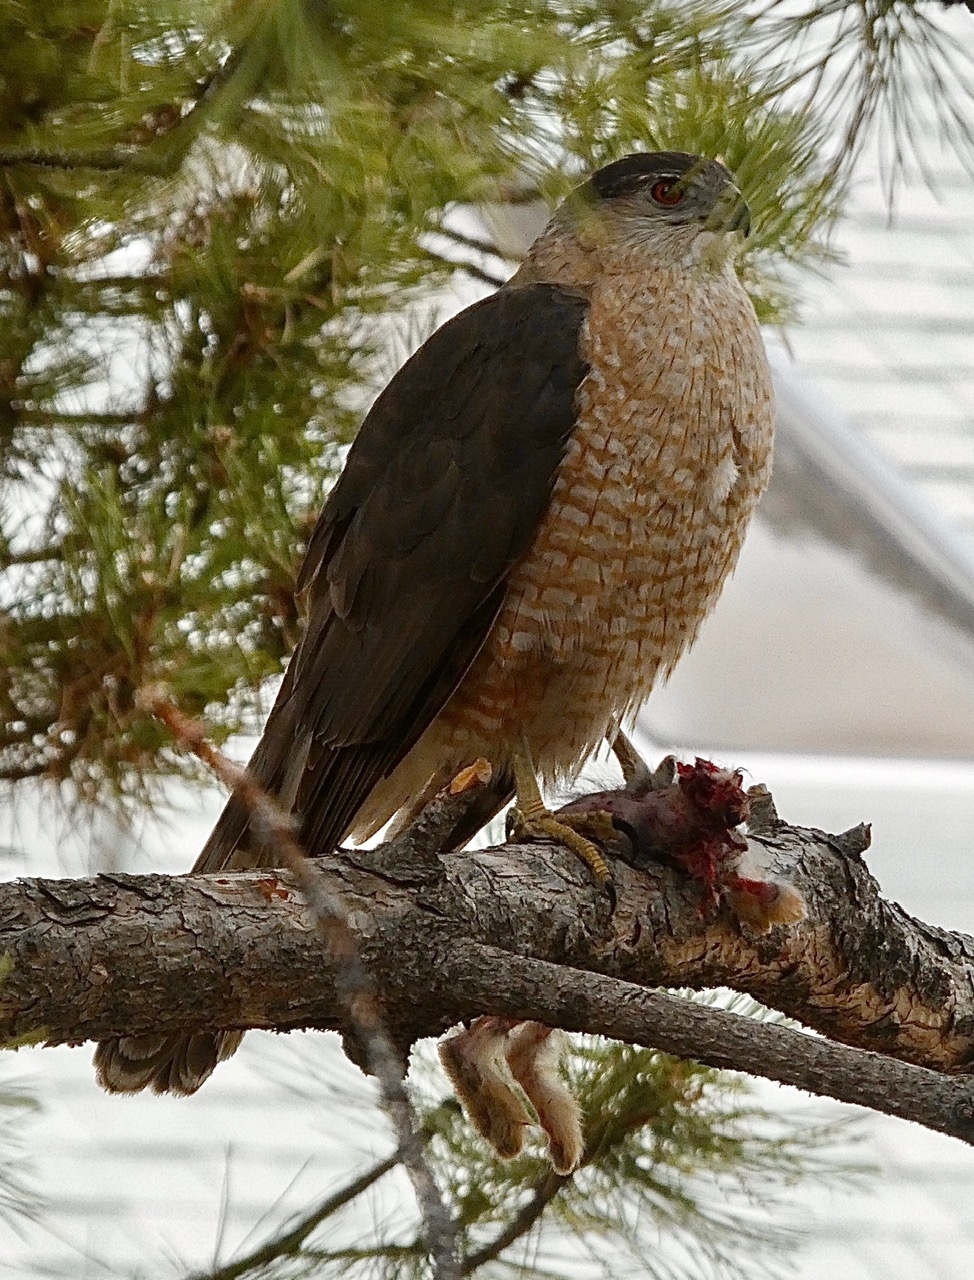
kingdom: Animalia
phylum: Chordata
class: Aves
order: Accipitriformes
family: Accipitridae
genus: Accipiter
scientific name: Accipiter cooperii
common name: Cooper's hawk
